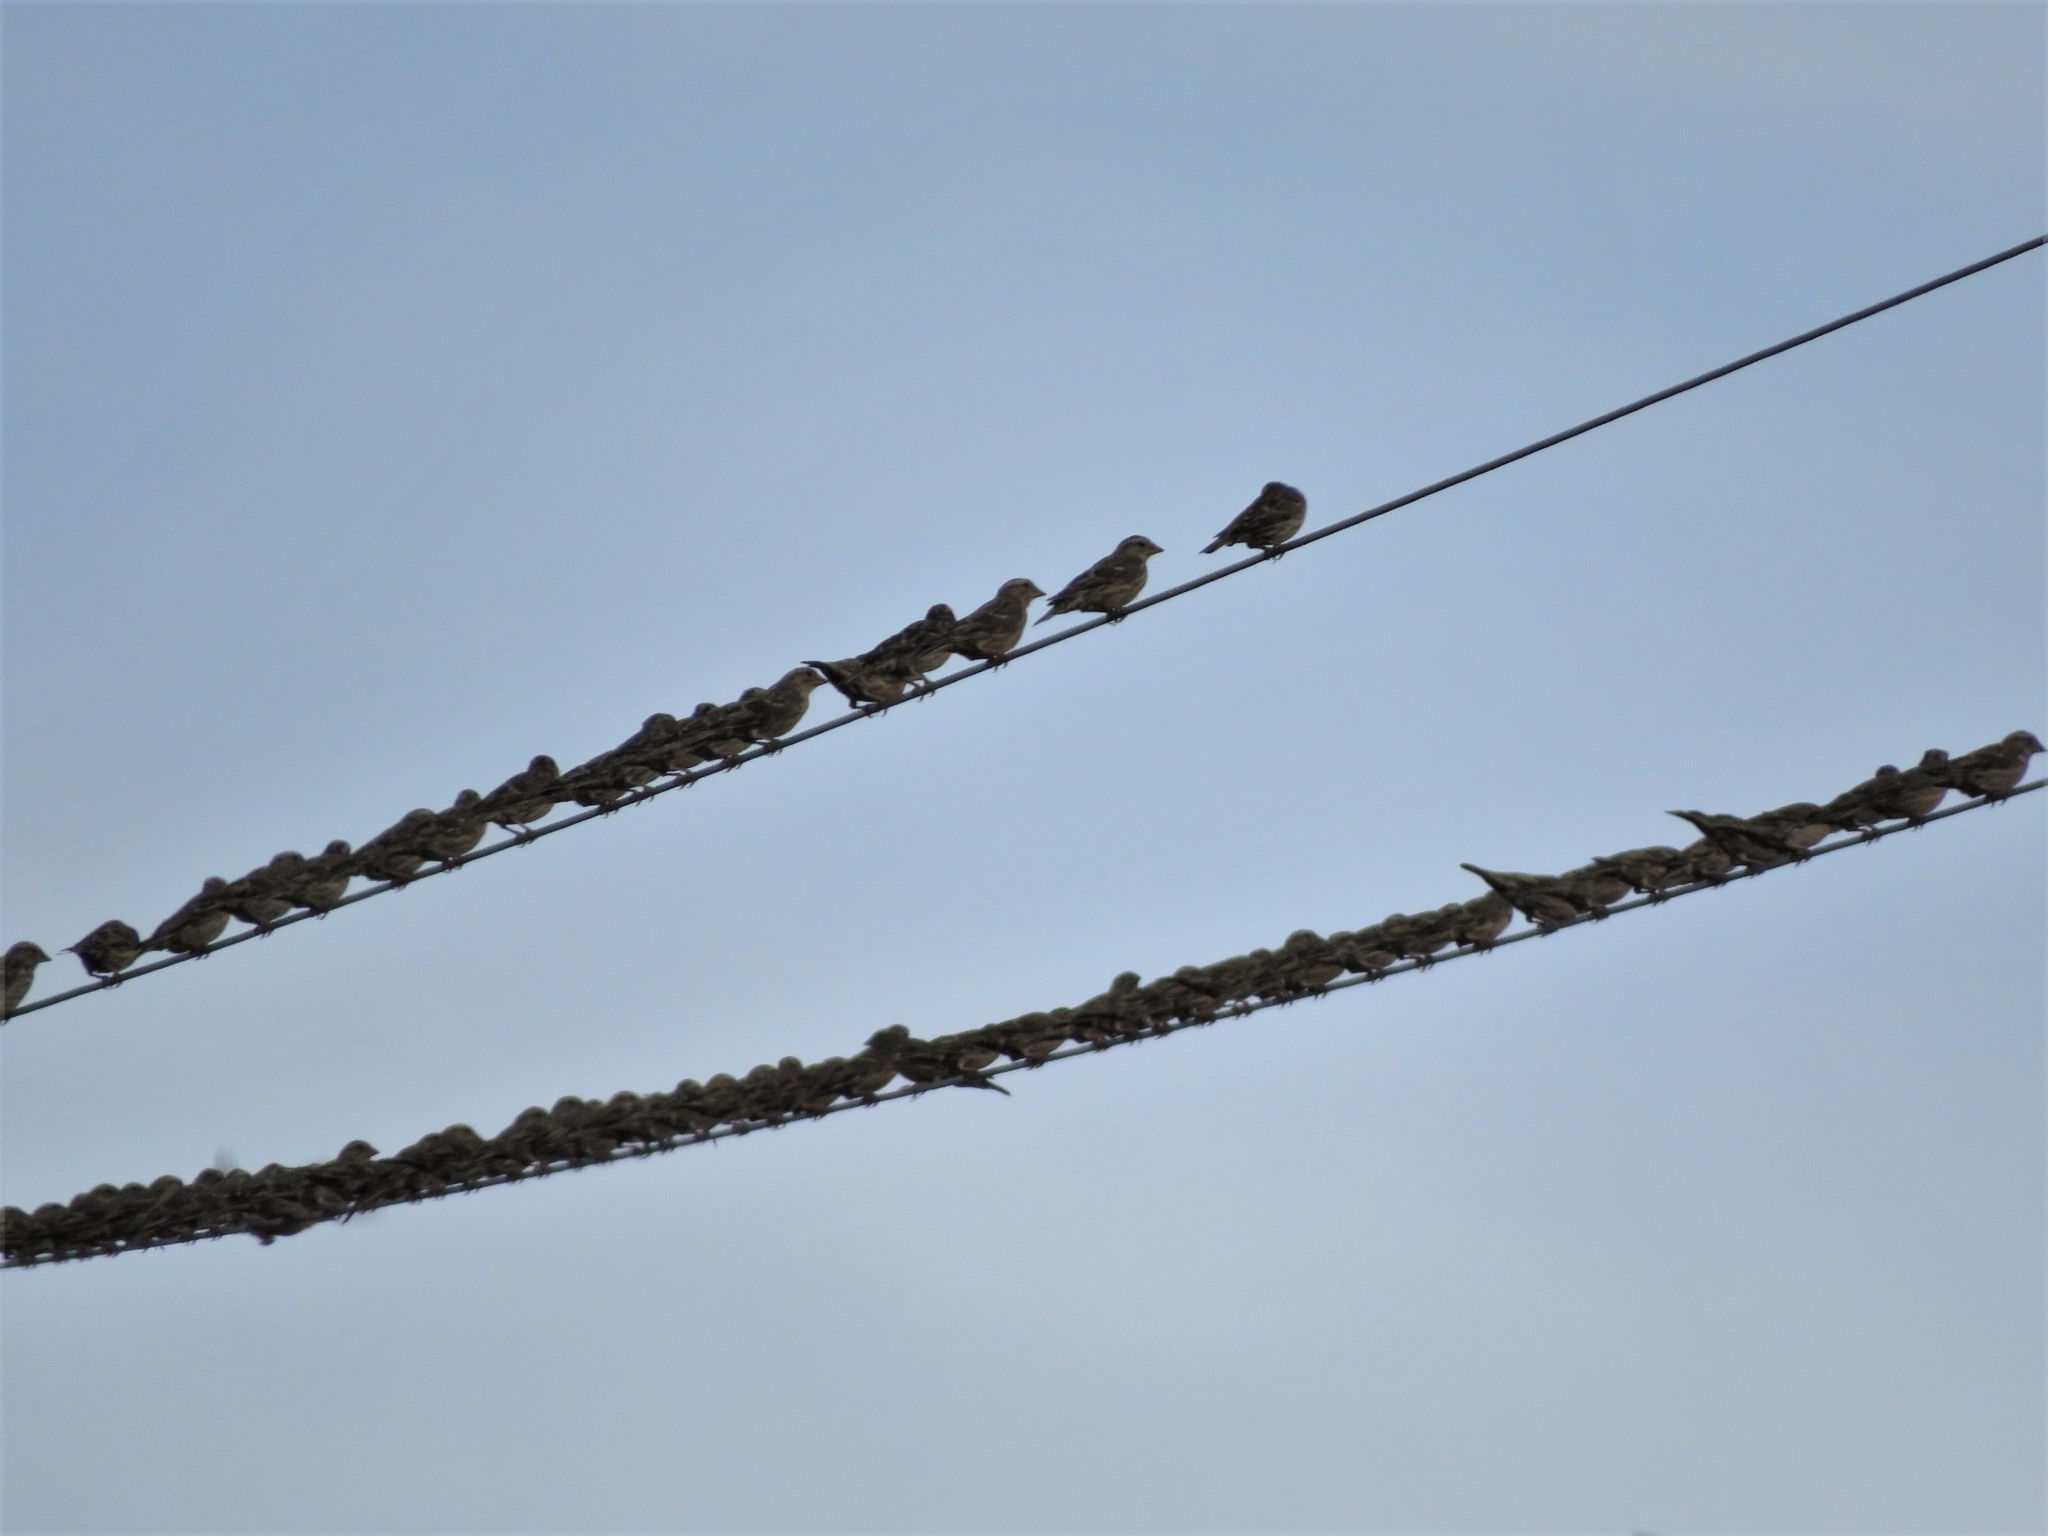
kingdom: Animalia
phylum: Chordata
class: Aves
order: Passeriformes
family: Passeridae
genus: Petronia
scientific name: Petronia petronia
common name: Rock sparrow
